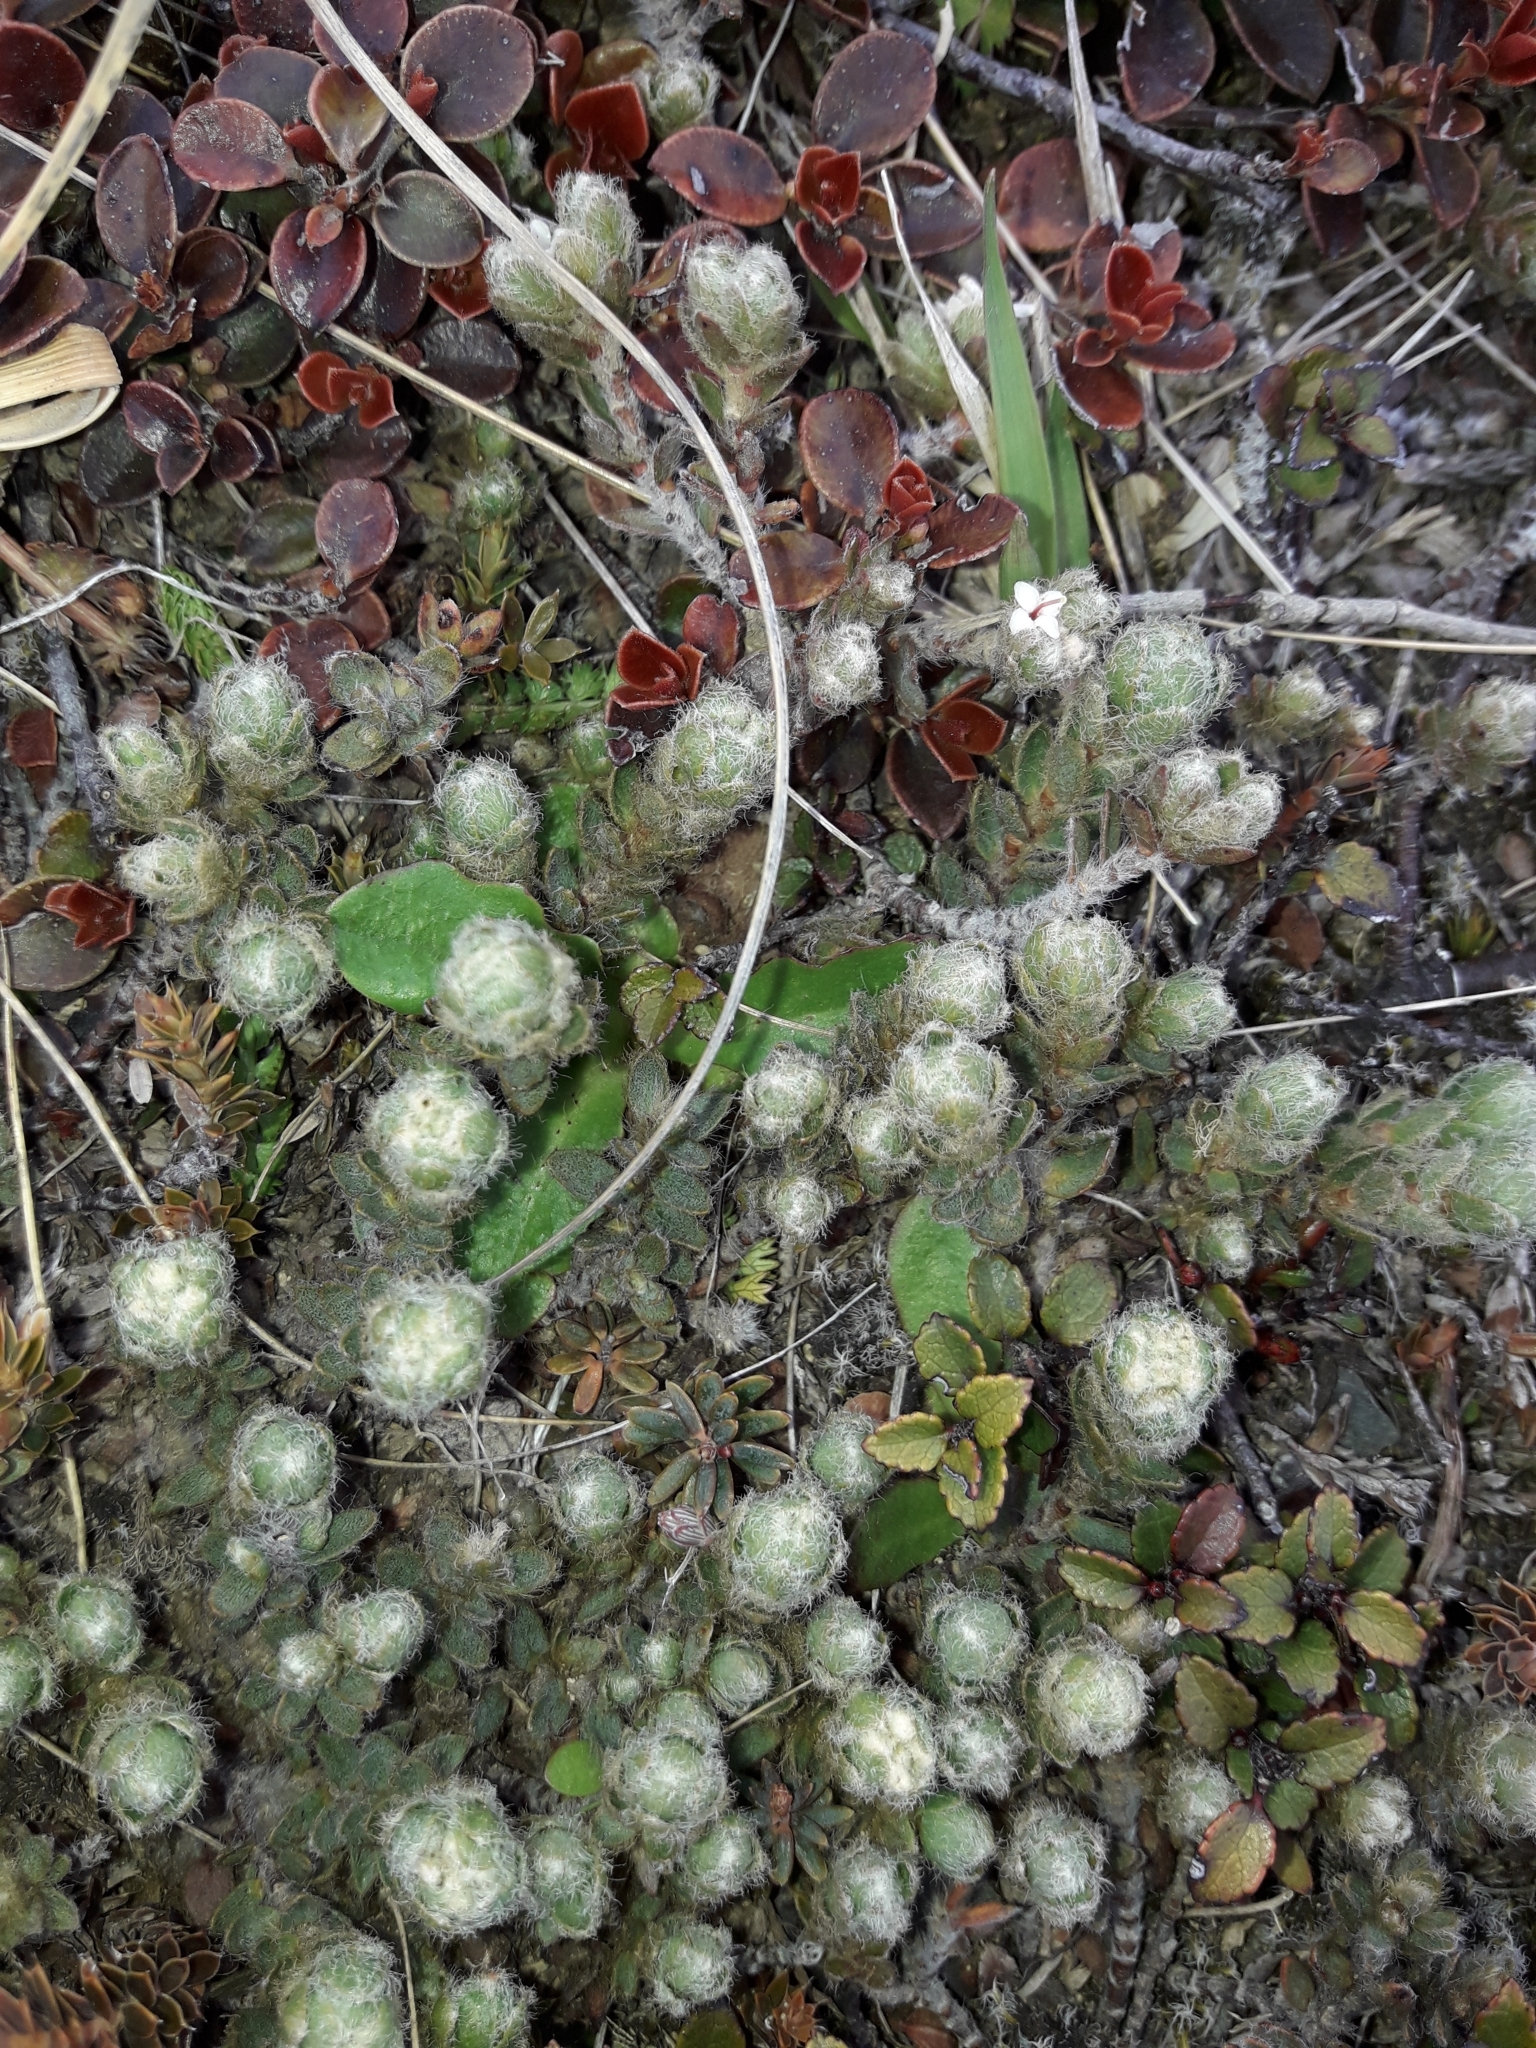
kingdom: Plantae
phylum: Tracheophyta
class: Magnoliopsida
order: Malvales
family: Thymelaeaceae
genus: Pimelea
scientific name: Pimelea sericeovillosa
